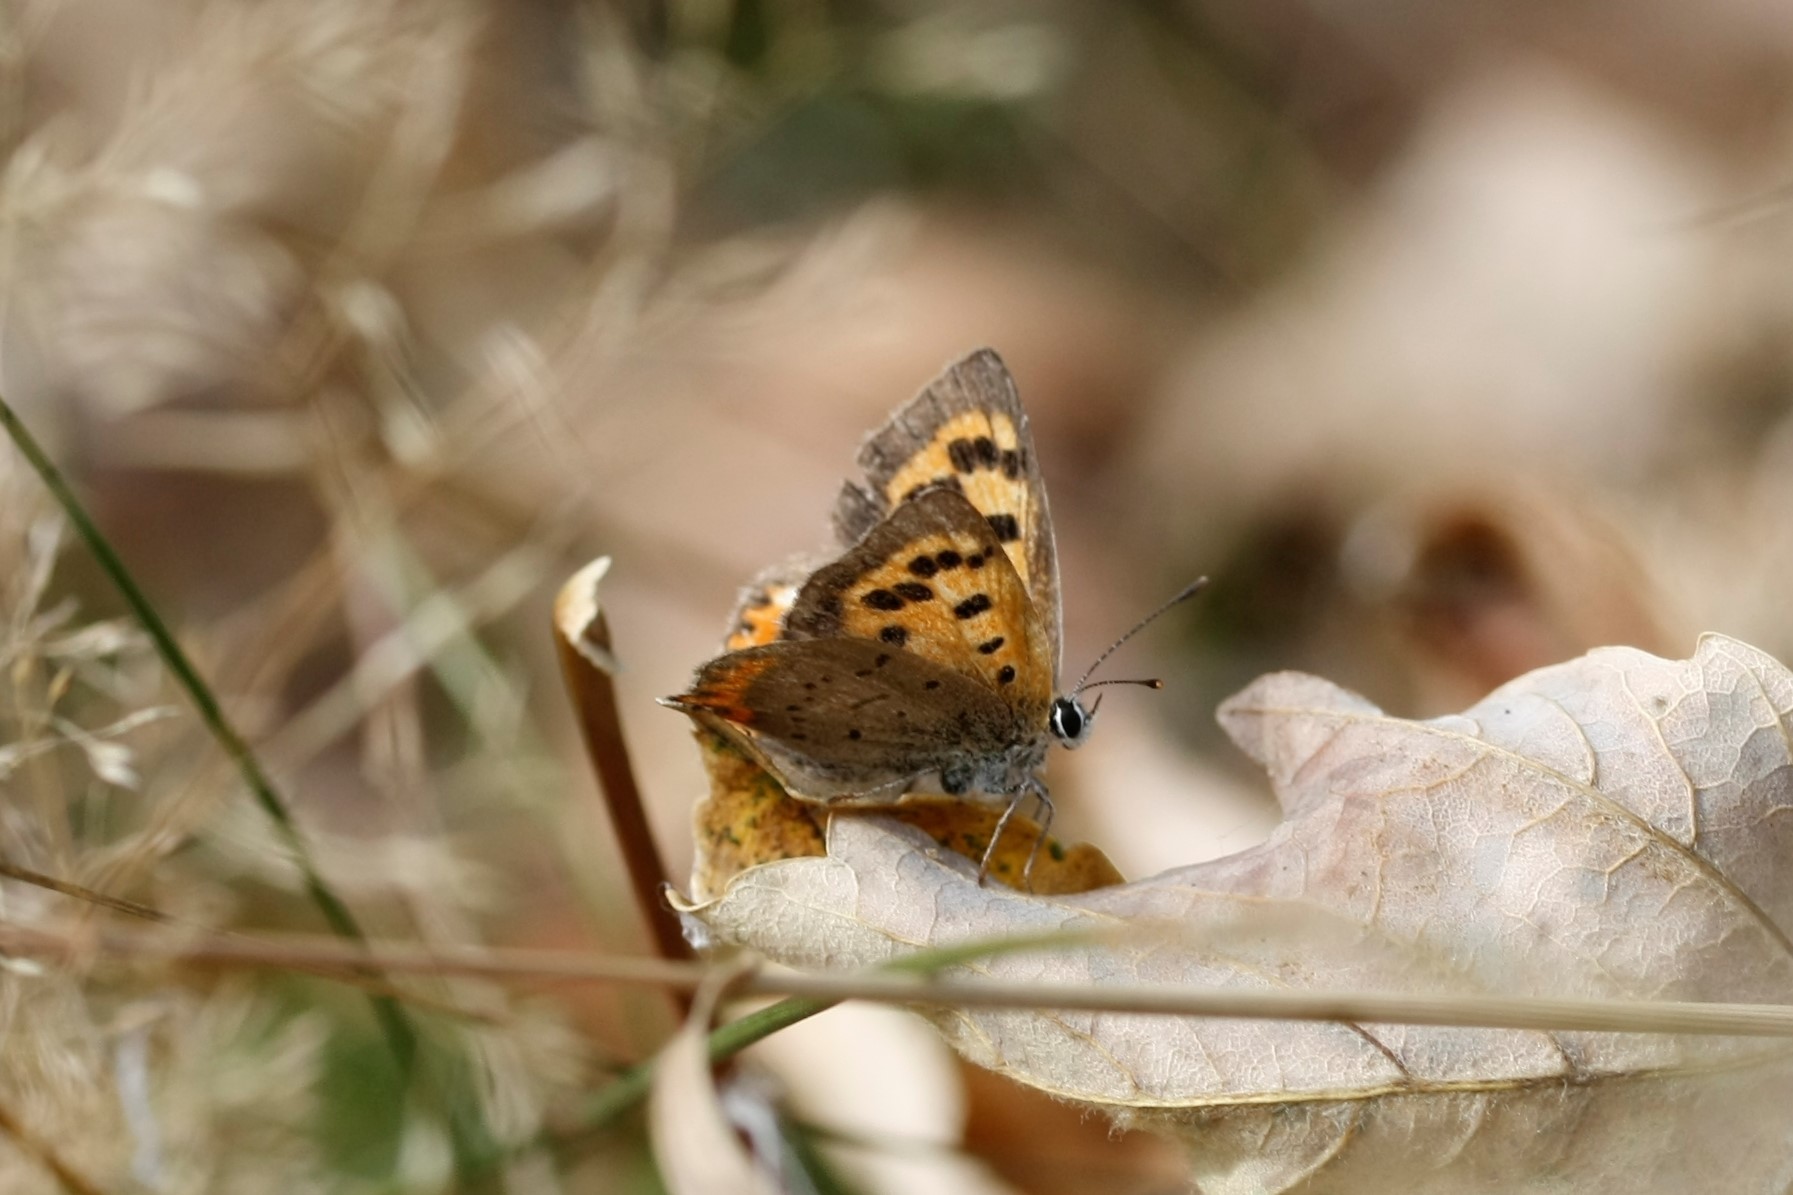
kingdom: Animalia
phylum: Arthropoda
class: Insecta
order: Lepidoptera
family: Lycaenidae
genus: Lycaena
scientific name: Lycaena phlaeas
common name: Small copper
